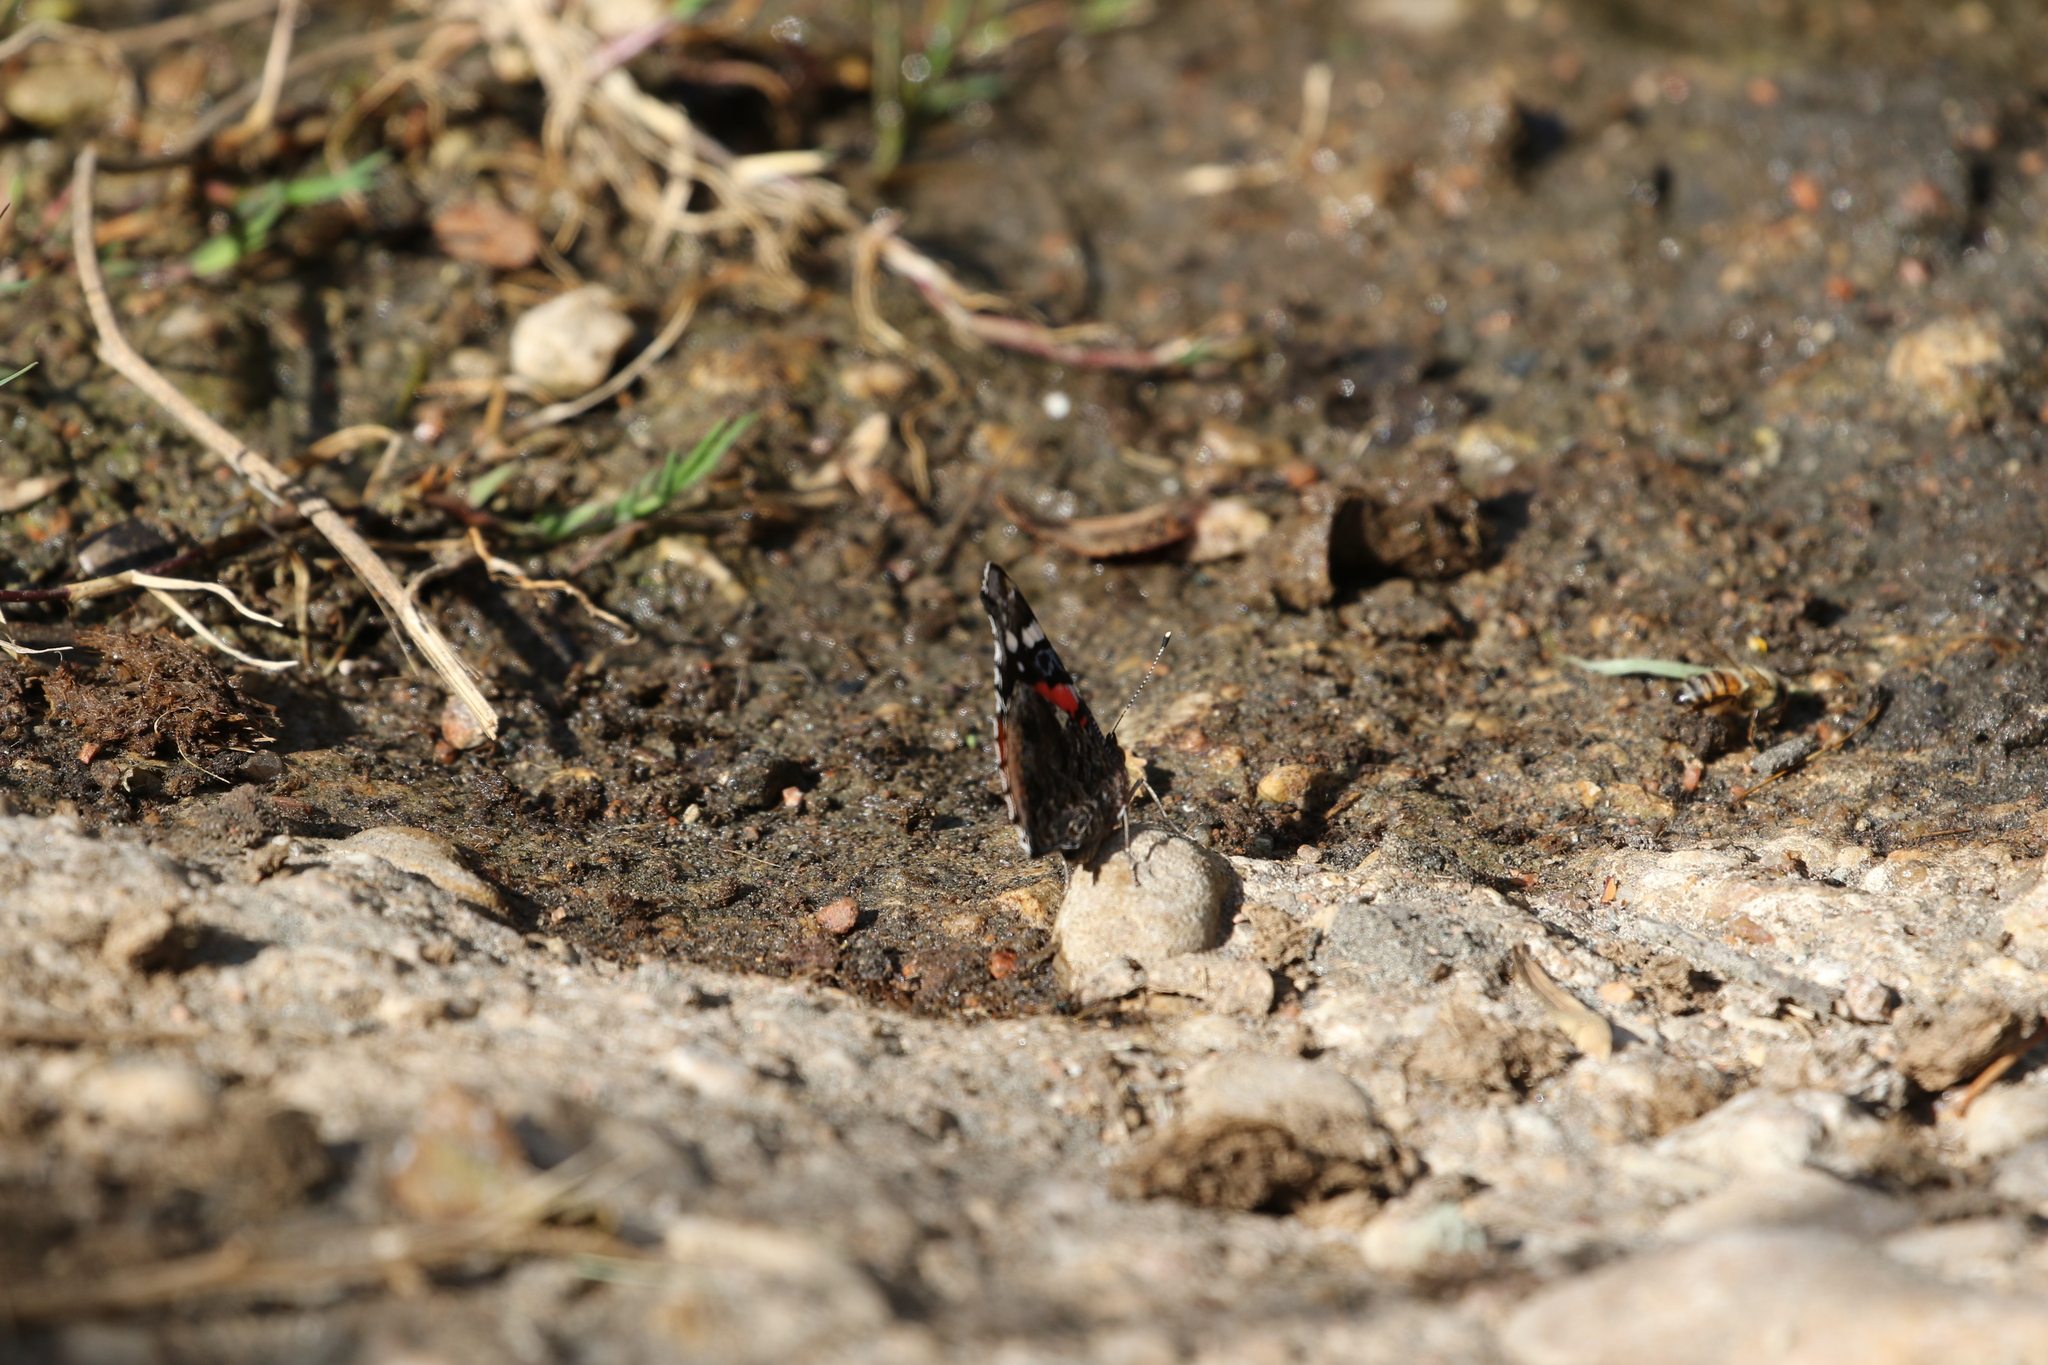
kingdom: Animalia
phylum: Arthropoda
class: Insecta
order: Lepidoptera
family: Nymphalidae
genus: Vanessa
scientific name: Vanessa atalanta
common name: Red admiral
